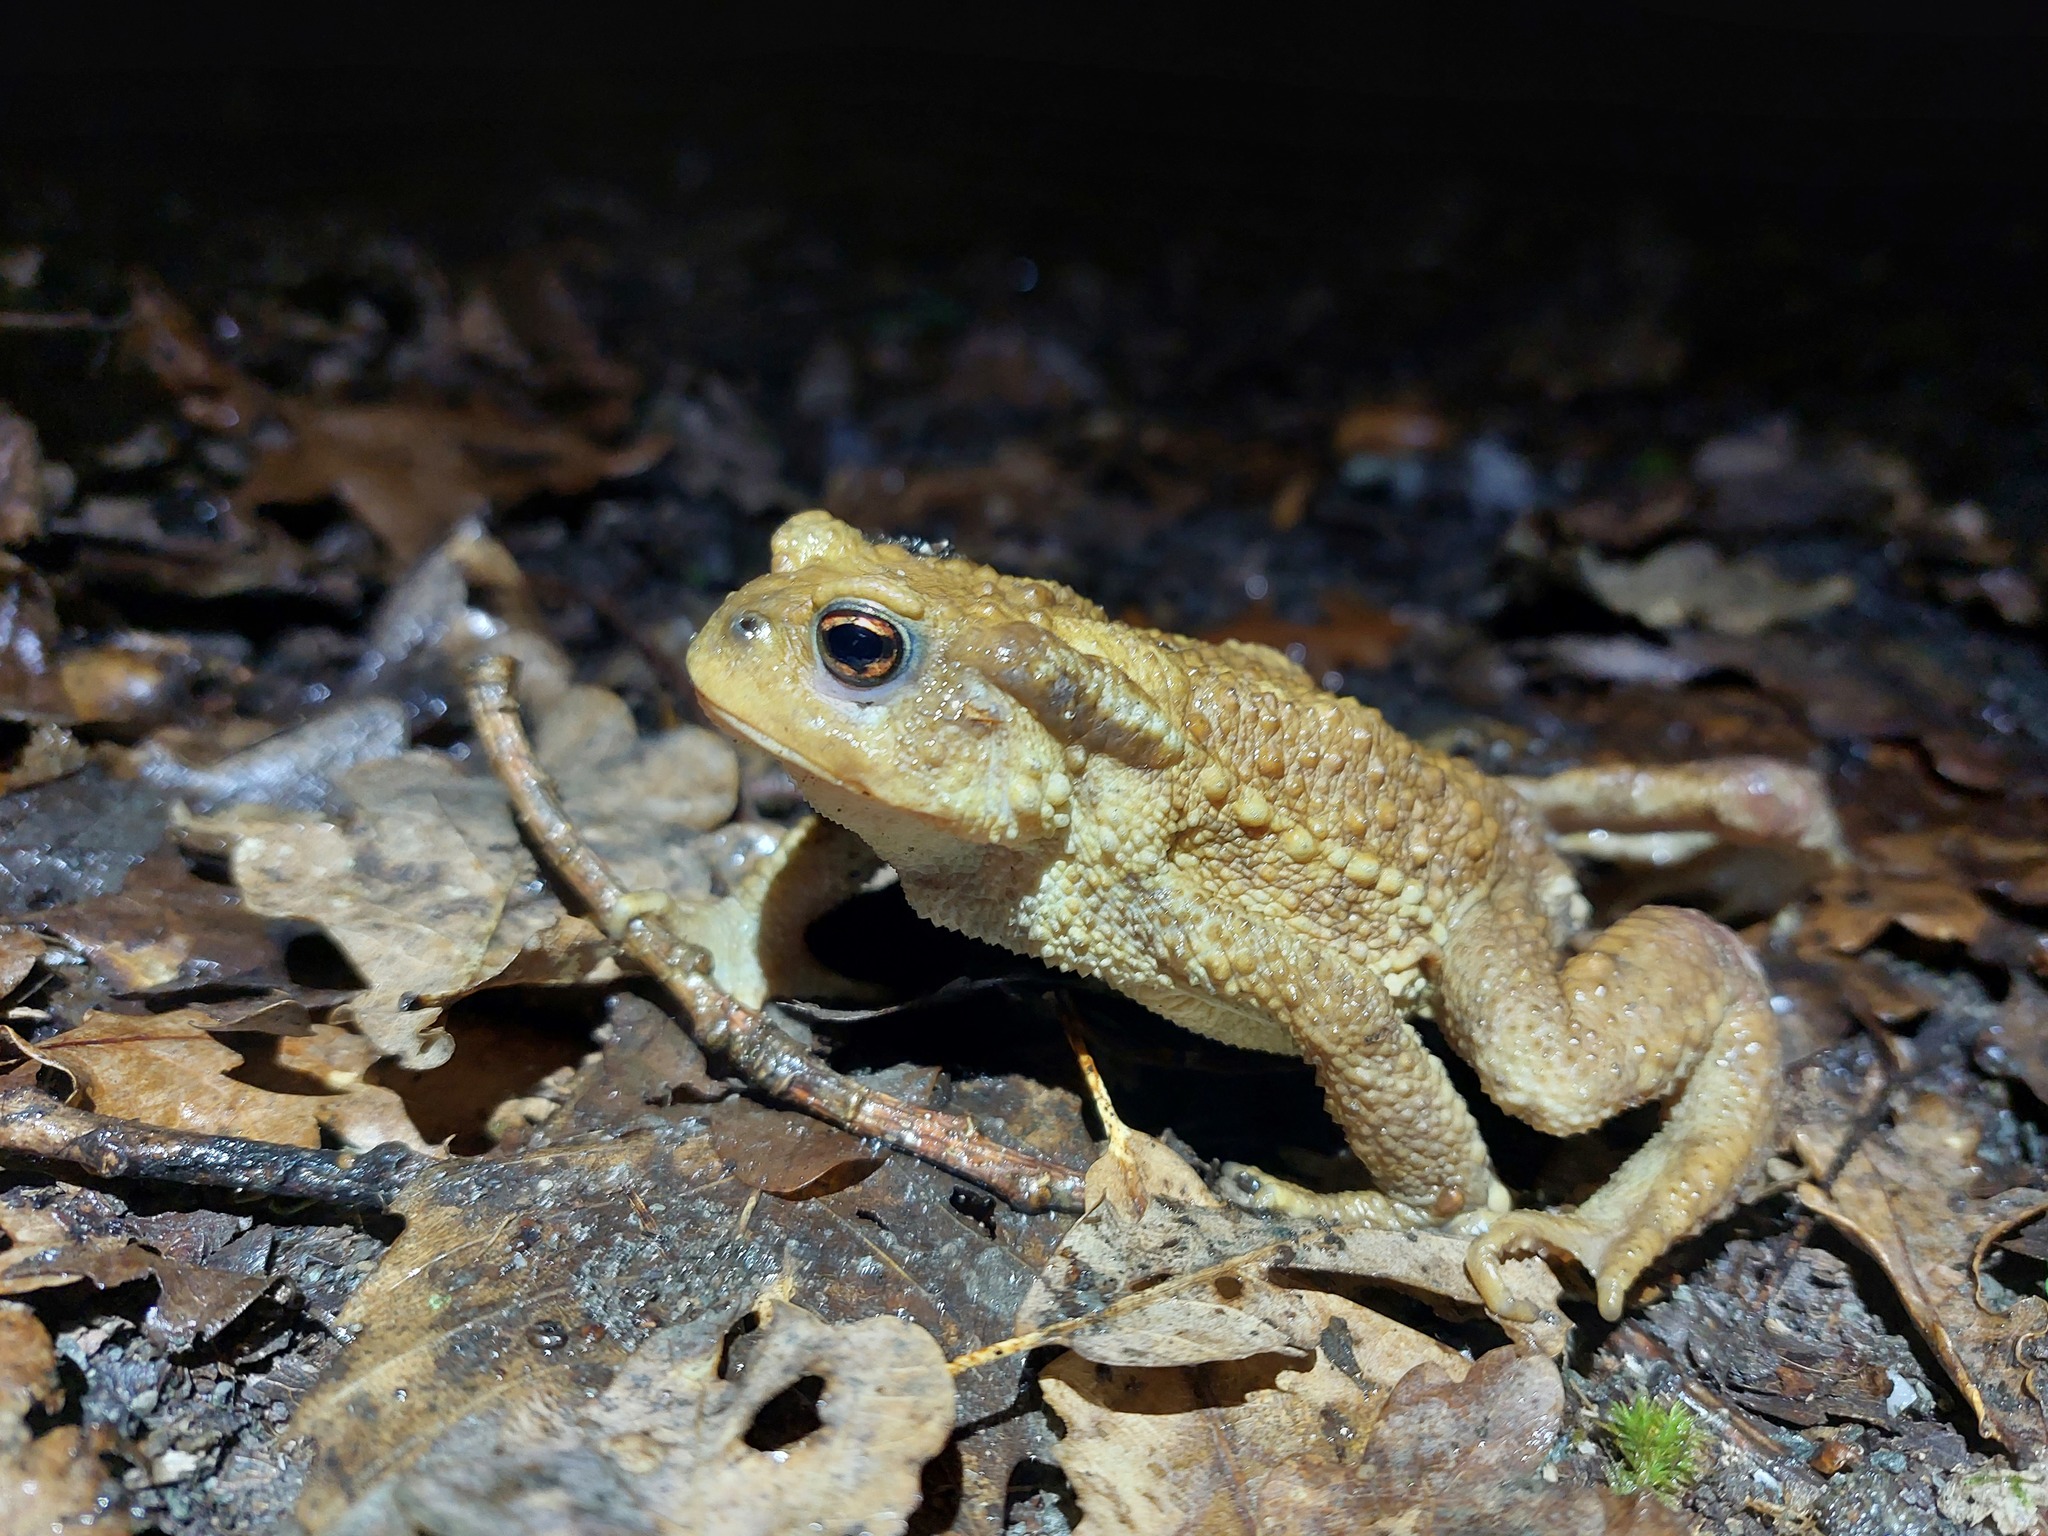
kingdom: Animalia
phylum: Chordata
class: Amphibia
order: Anura
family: Bufonidae
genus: Bufo
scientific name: Bufo spinosus
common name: Western common toad
